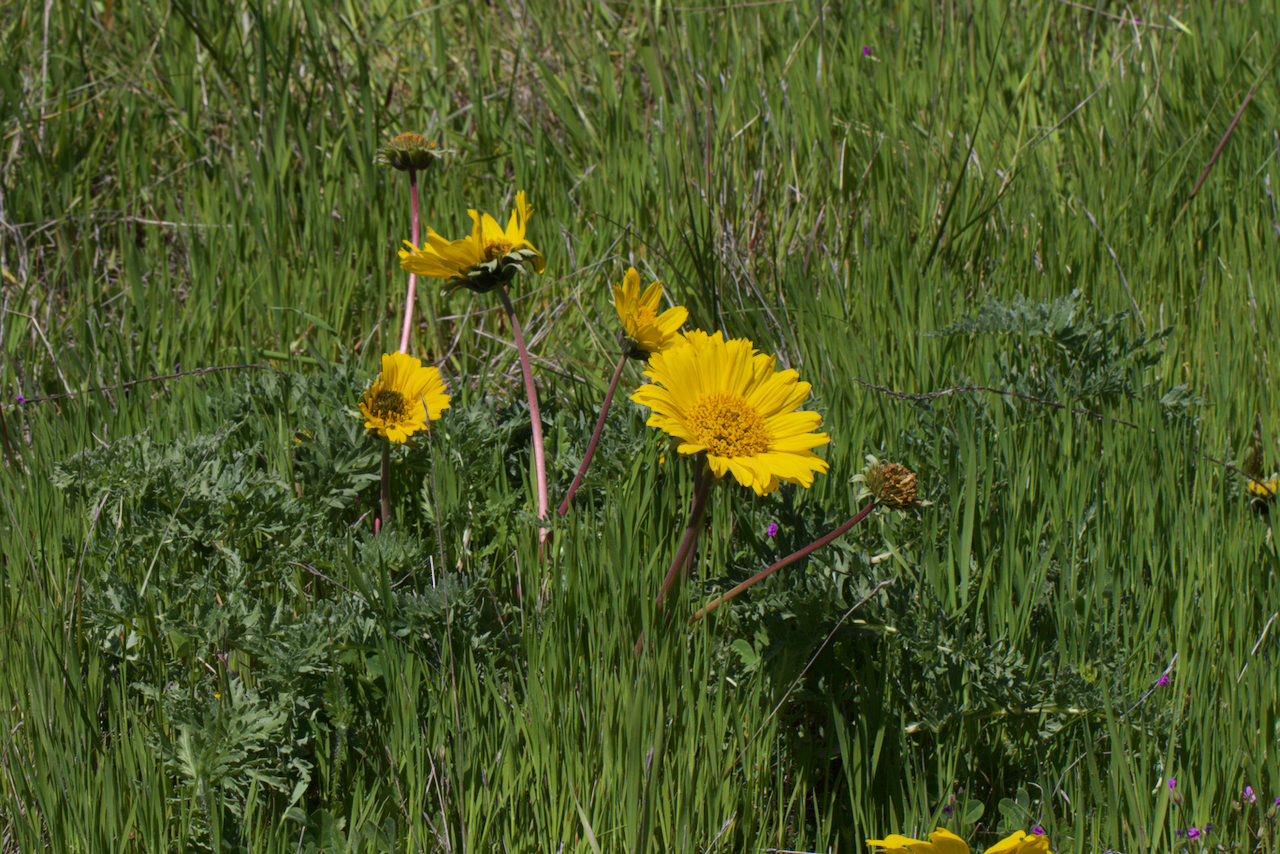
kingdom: Plantae
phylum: Tracheophyta
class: Magnoliopsida
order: Asterales
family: Asteraceae
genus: Balsamorhiza
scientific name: Balsamorhiza macrolepis
